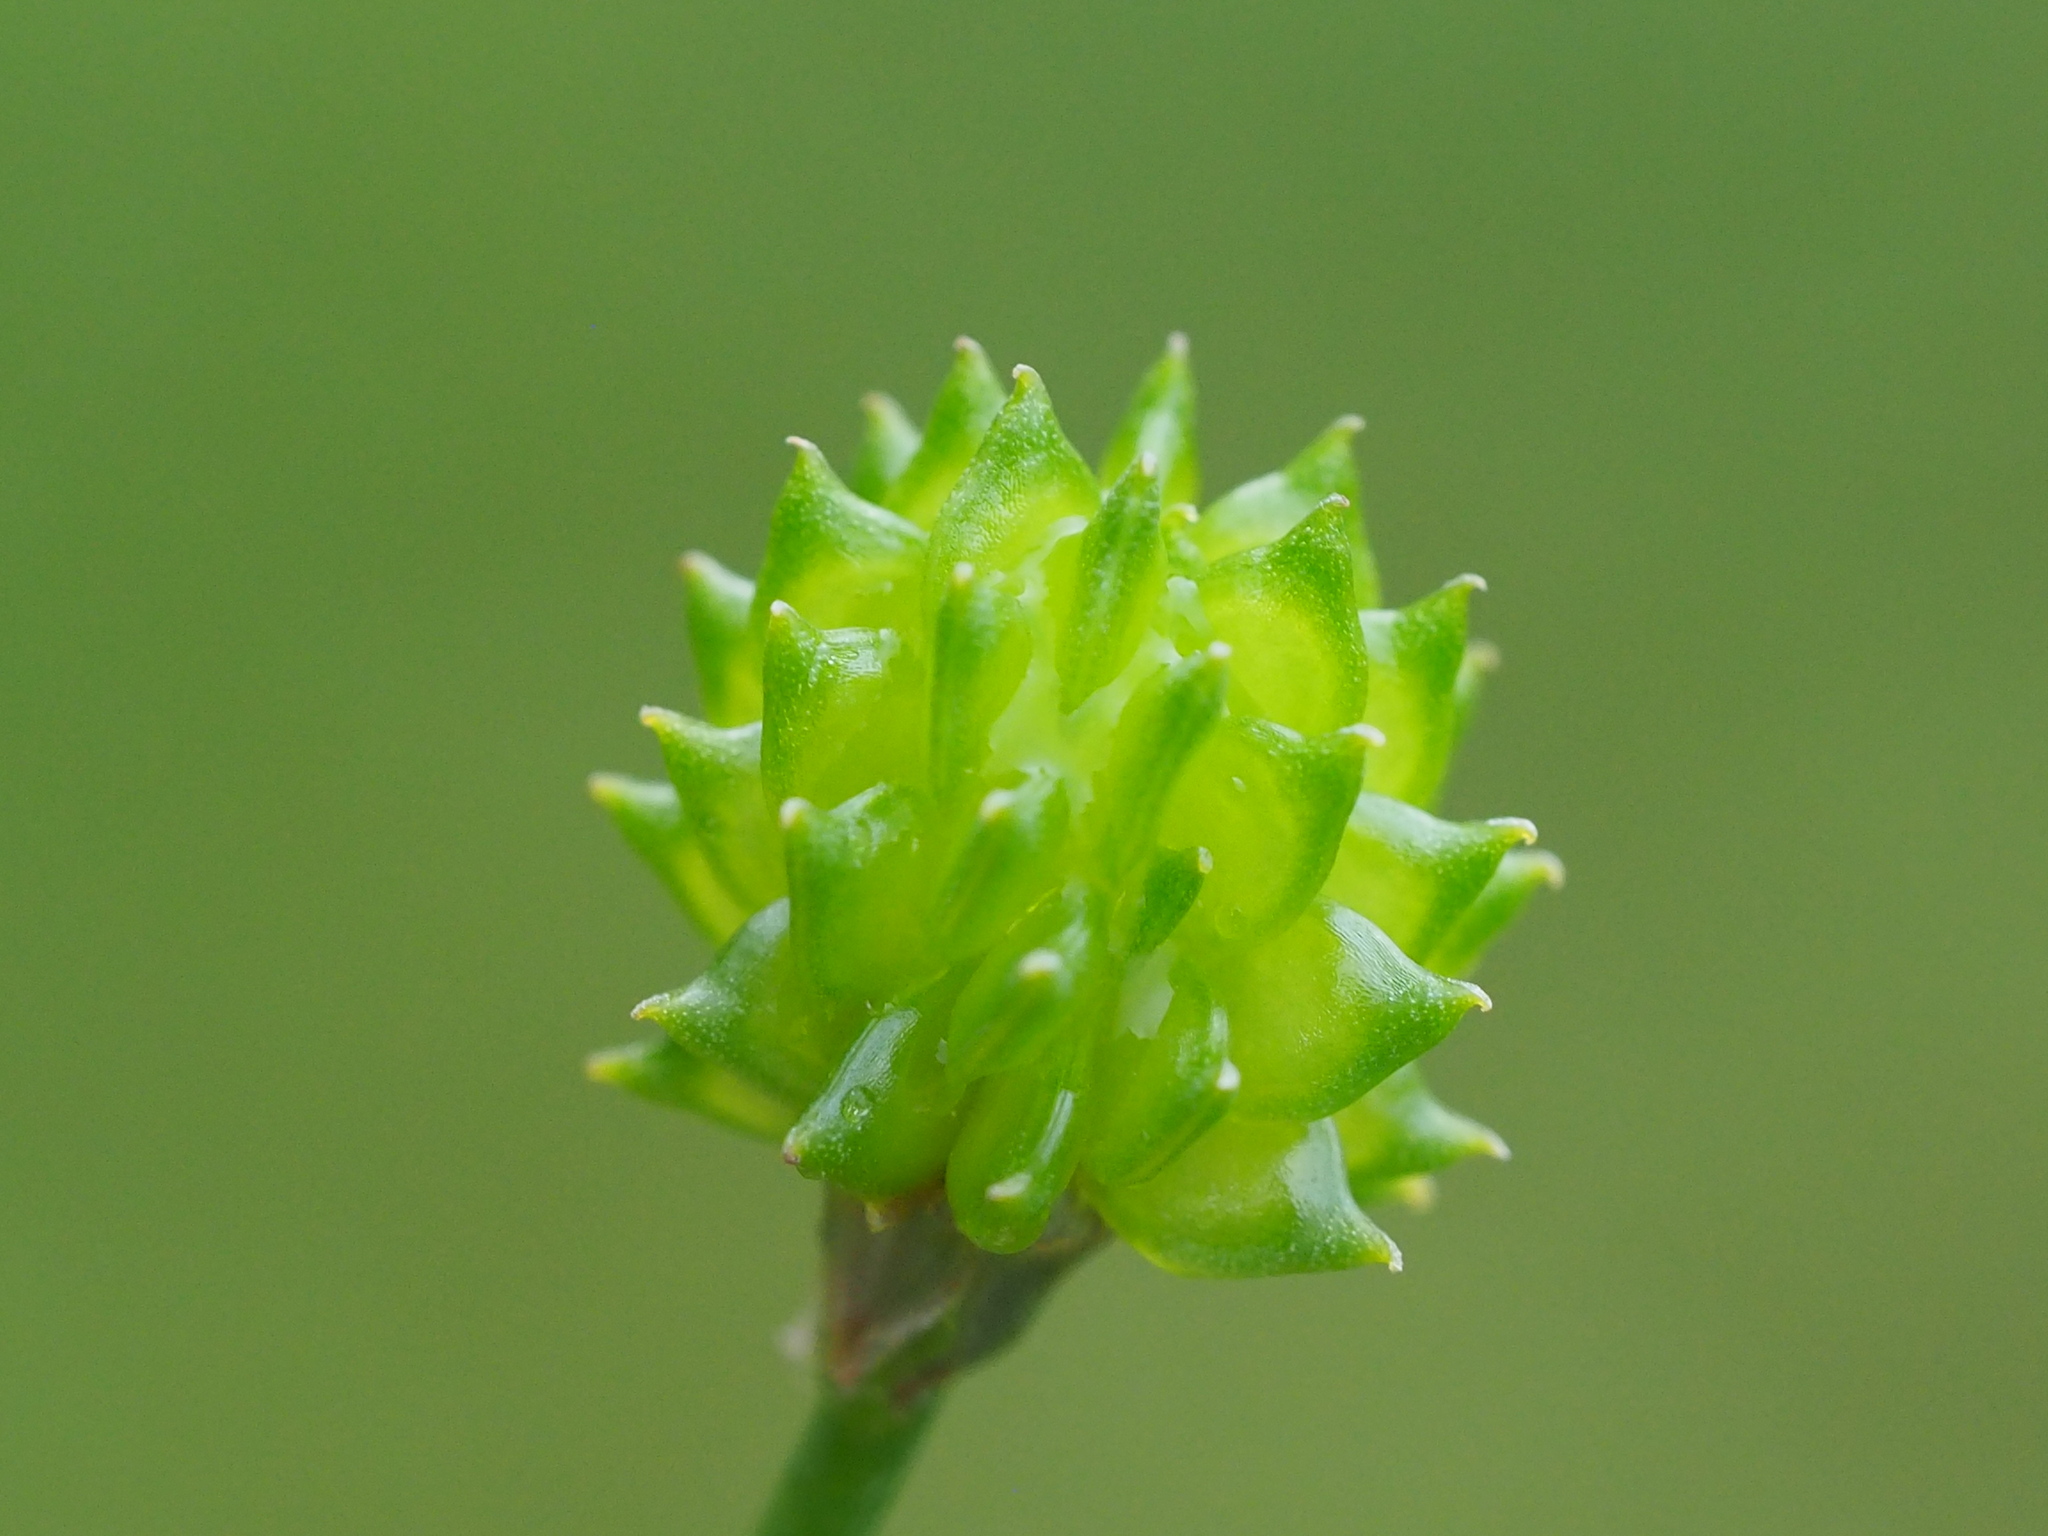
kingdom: Plantae
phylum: Tracheophyta
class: Magnoliopsida
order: Ranunculales
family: Ranunculaceae
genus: Ranunculus
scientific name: Ranunculus cantoniensis
